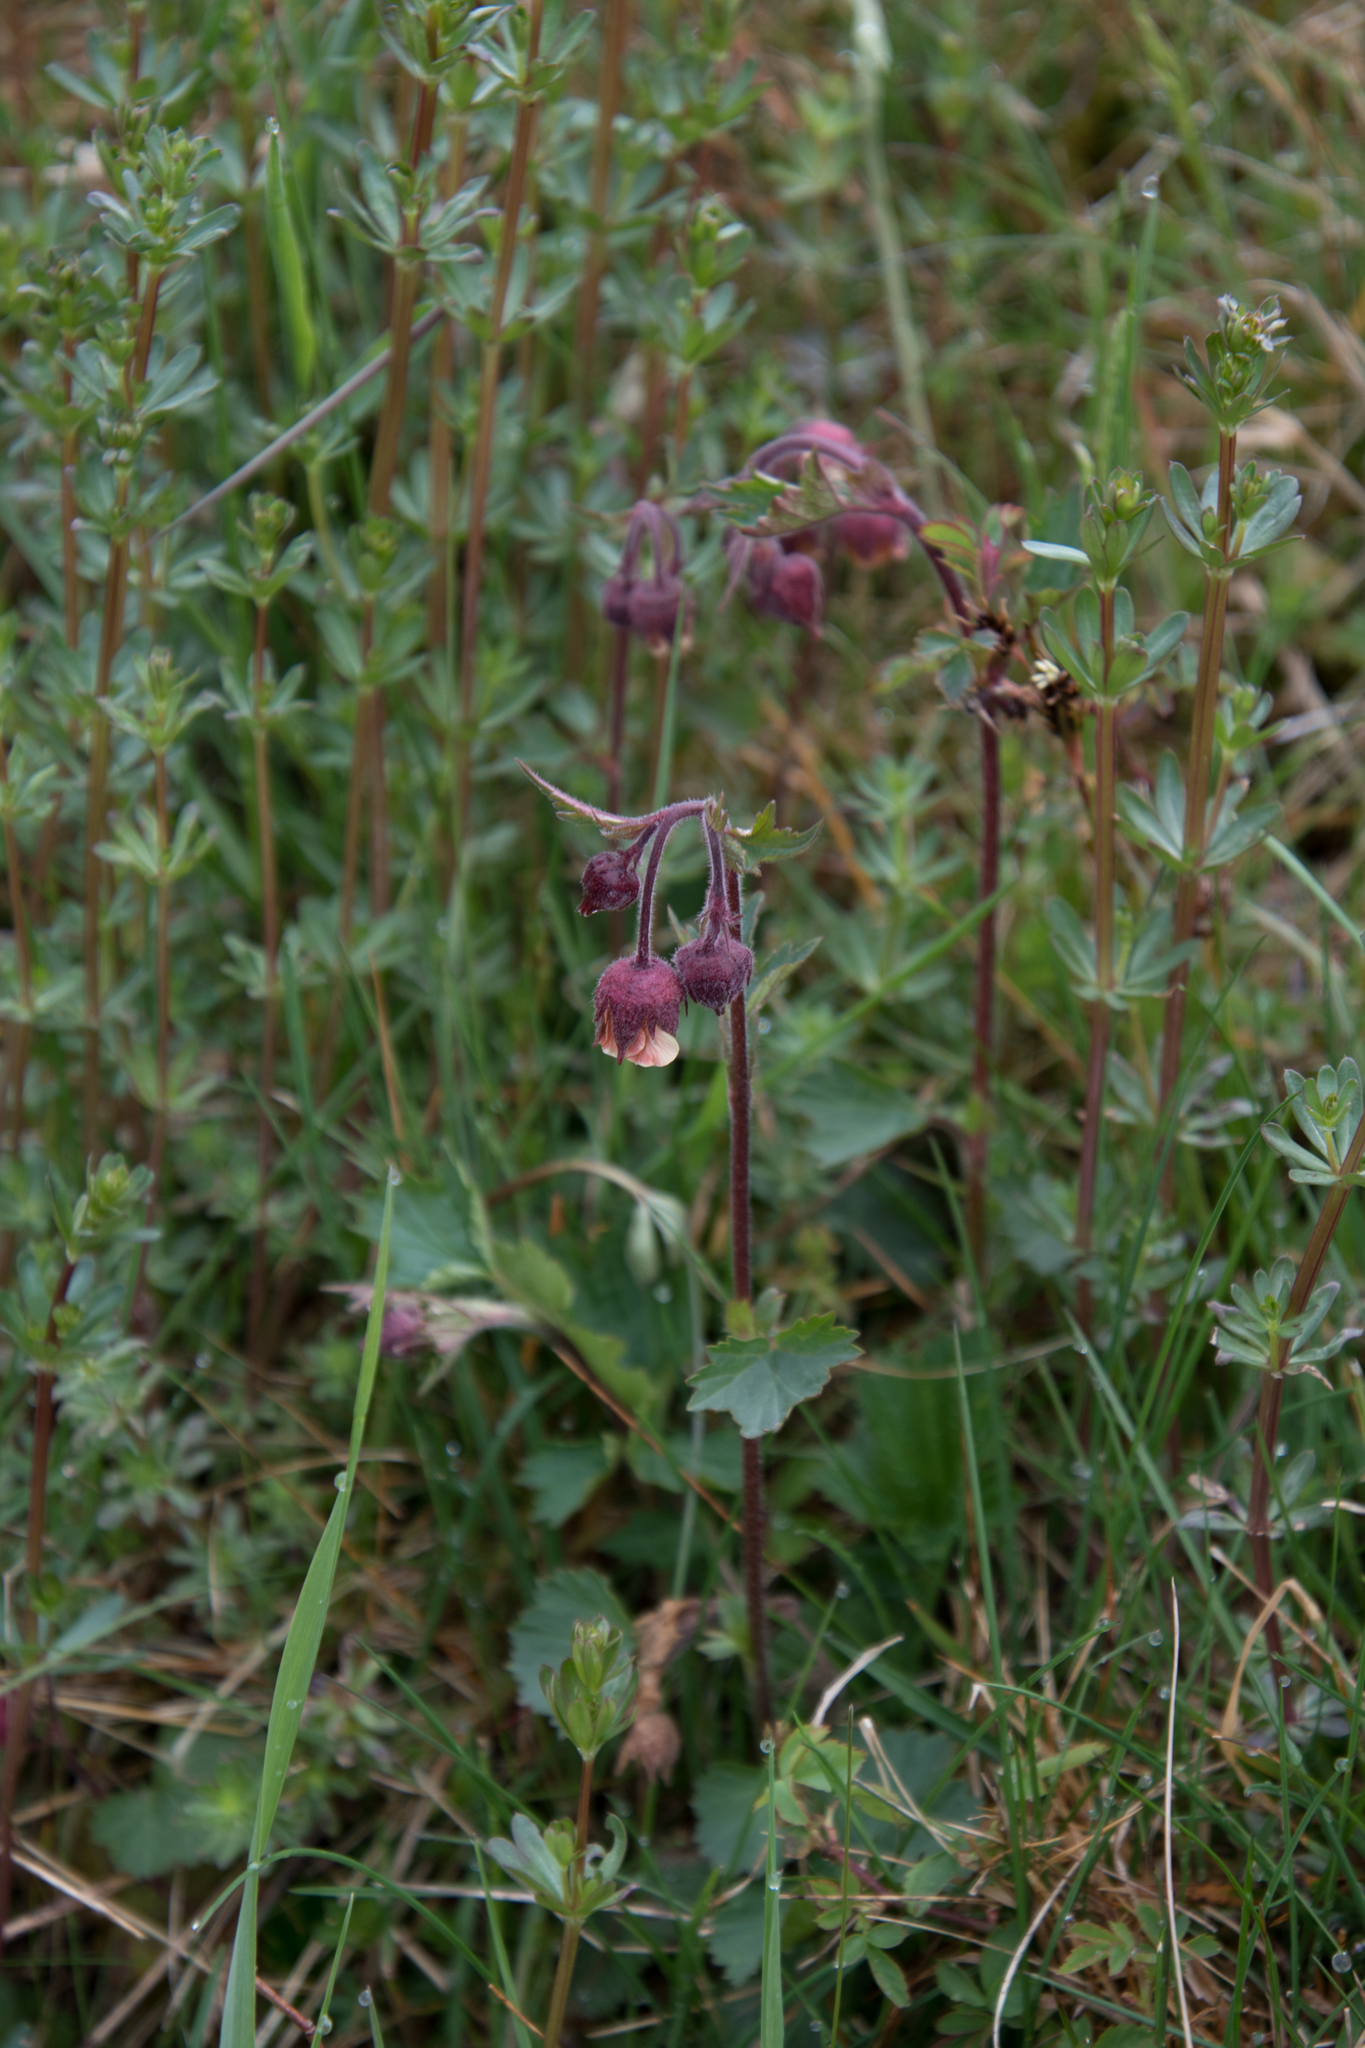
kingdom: Plantae
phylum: Tracheophyta
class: Magnoliopsida
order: Rosales
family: Rosaceae
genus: Geum
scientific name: Geum rivale
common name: Water avens
